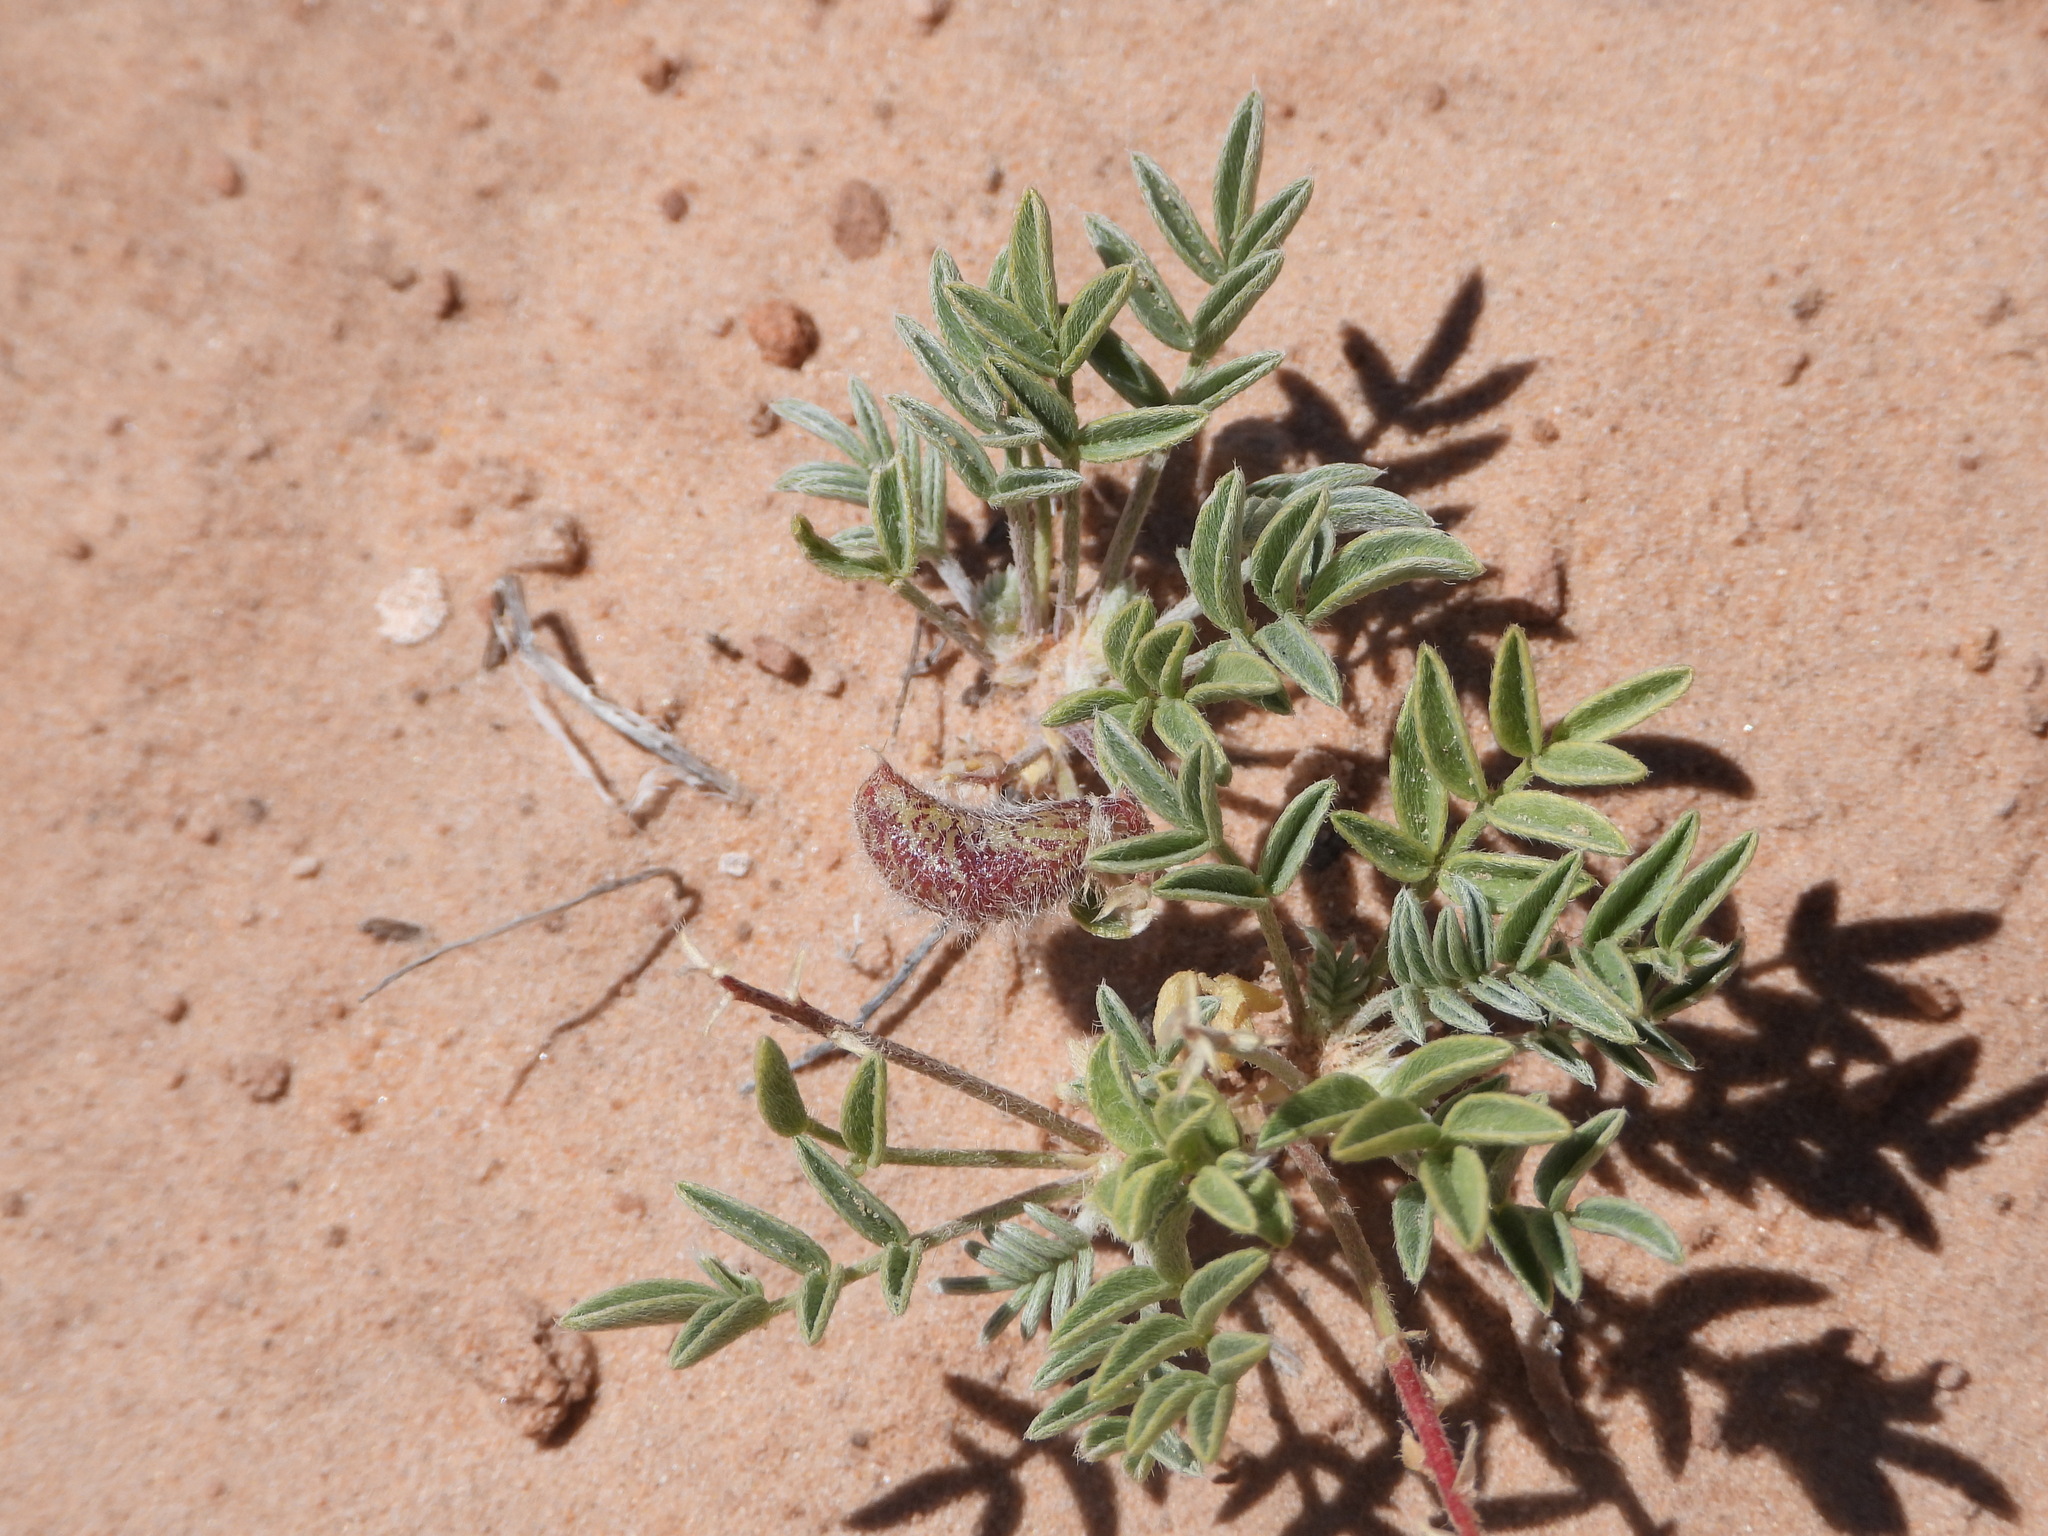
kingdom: Plantae
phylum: Tracheophyta
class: Magnoliopsida
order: Fabales
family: Fabaceae
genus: Astragalus
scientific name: Astragalus desperatus
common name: Rimrock milk-vetch
